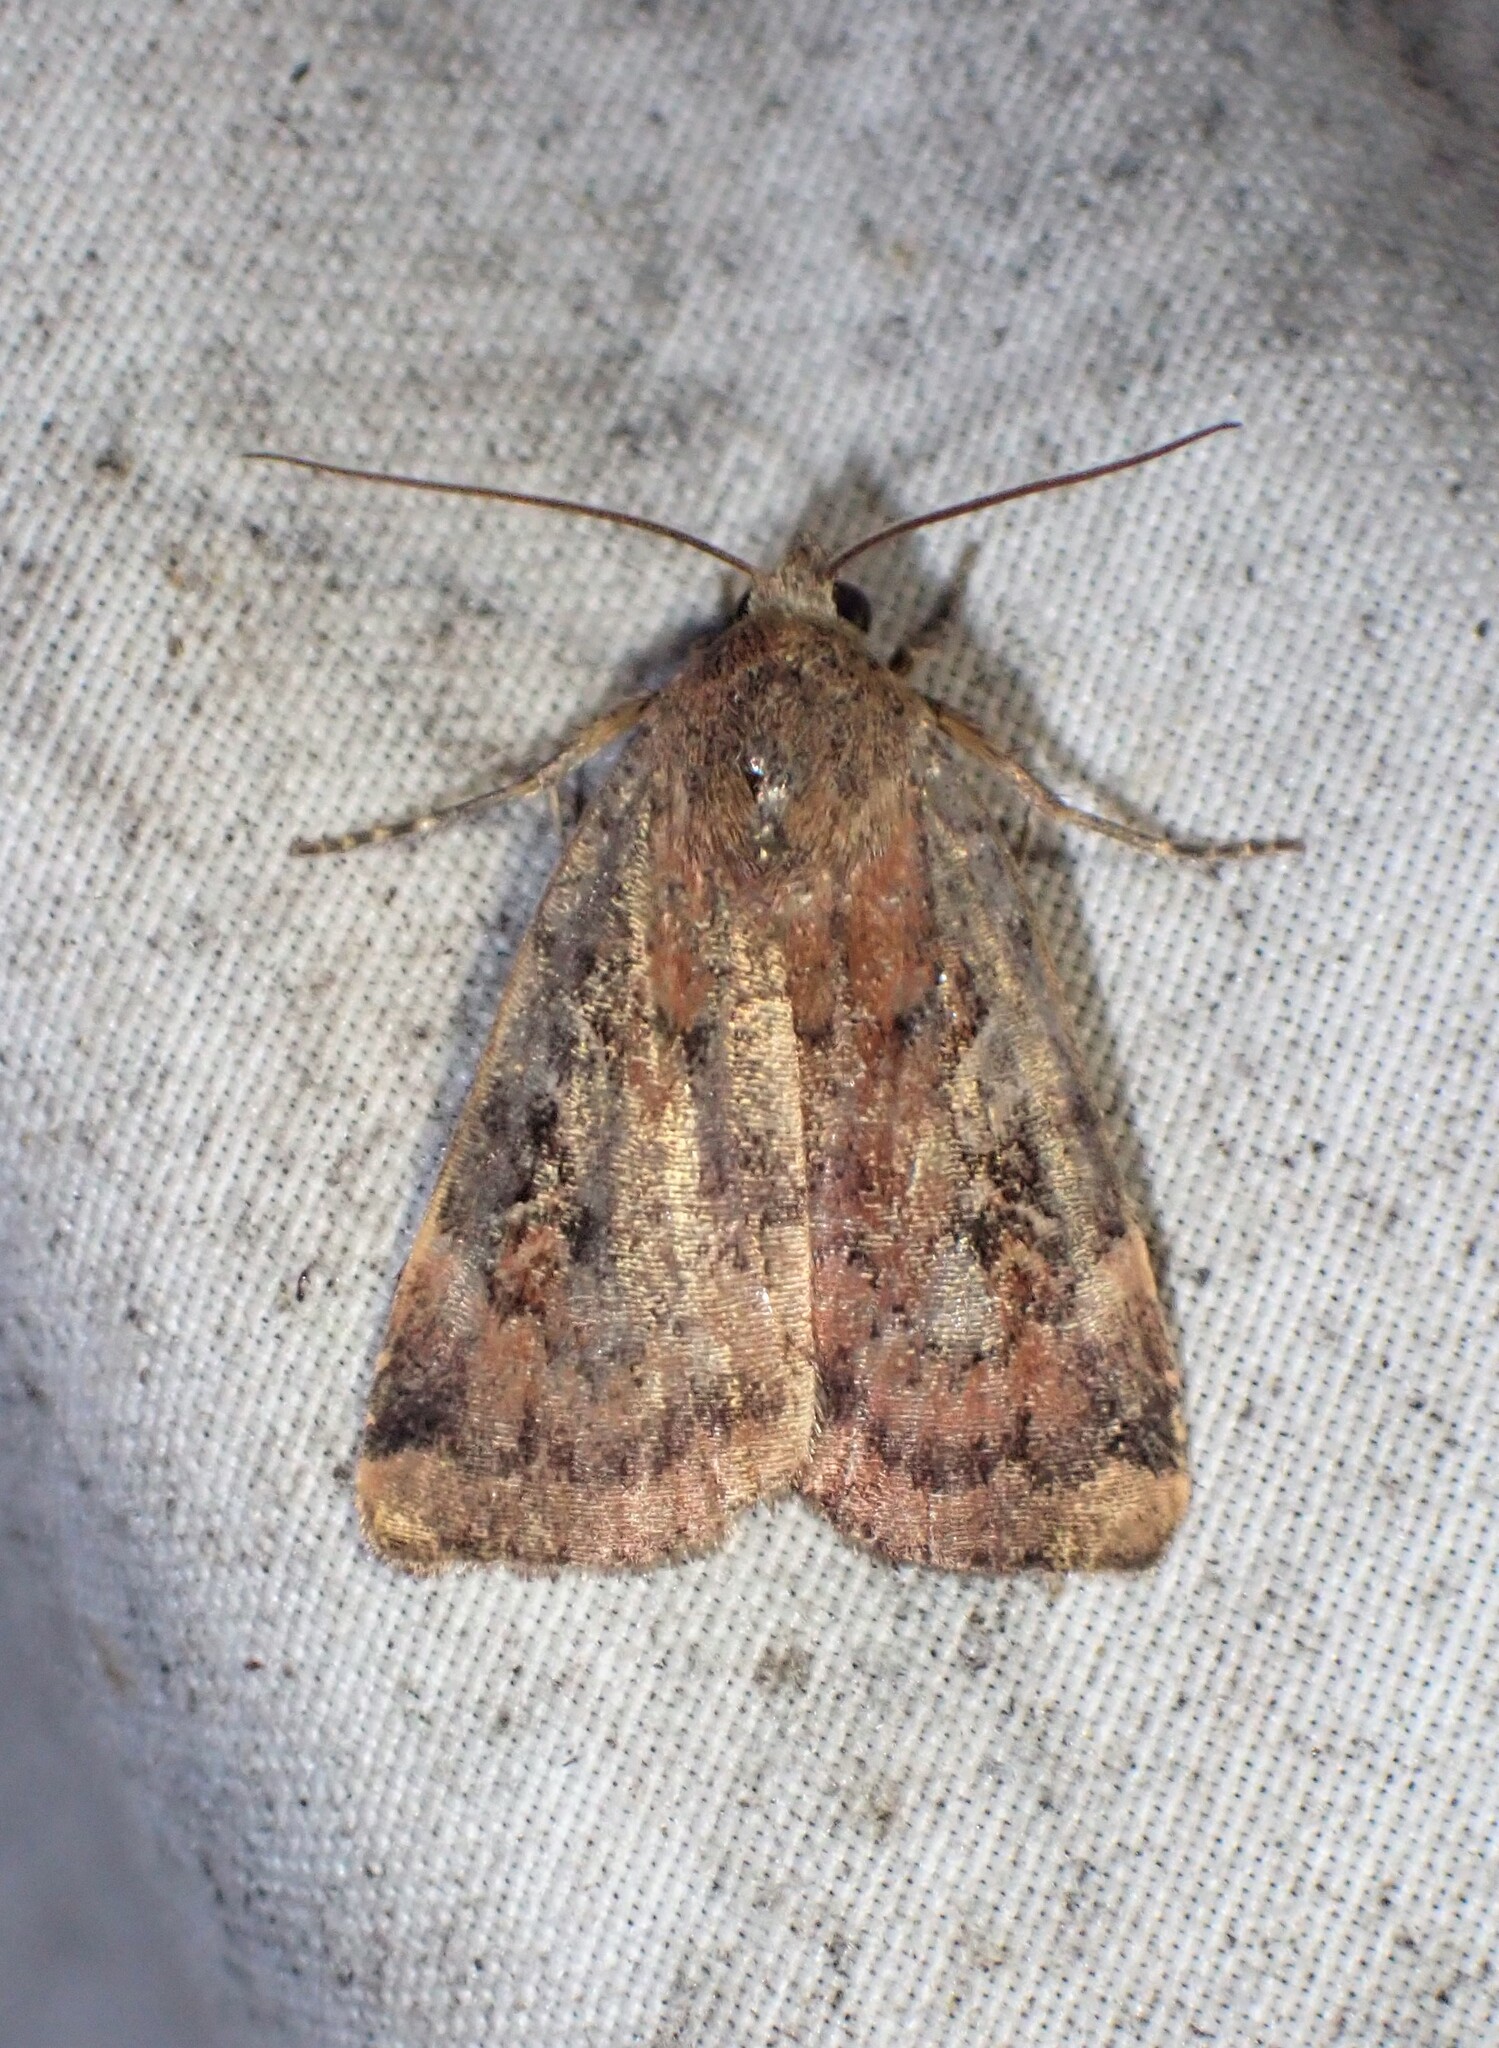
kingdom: Animalia
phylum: Arthropoda
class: Insecta
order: Lepidoptera
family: Noctuidae
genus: Cryptocala
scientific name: Cryptocala acadiensis
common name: Catocaline dart
